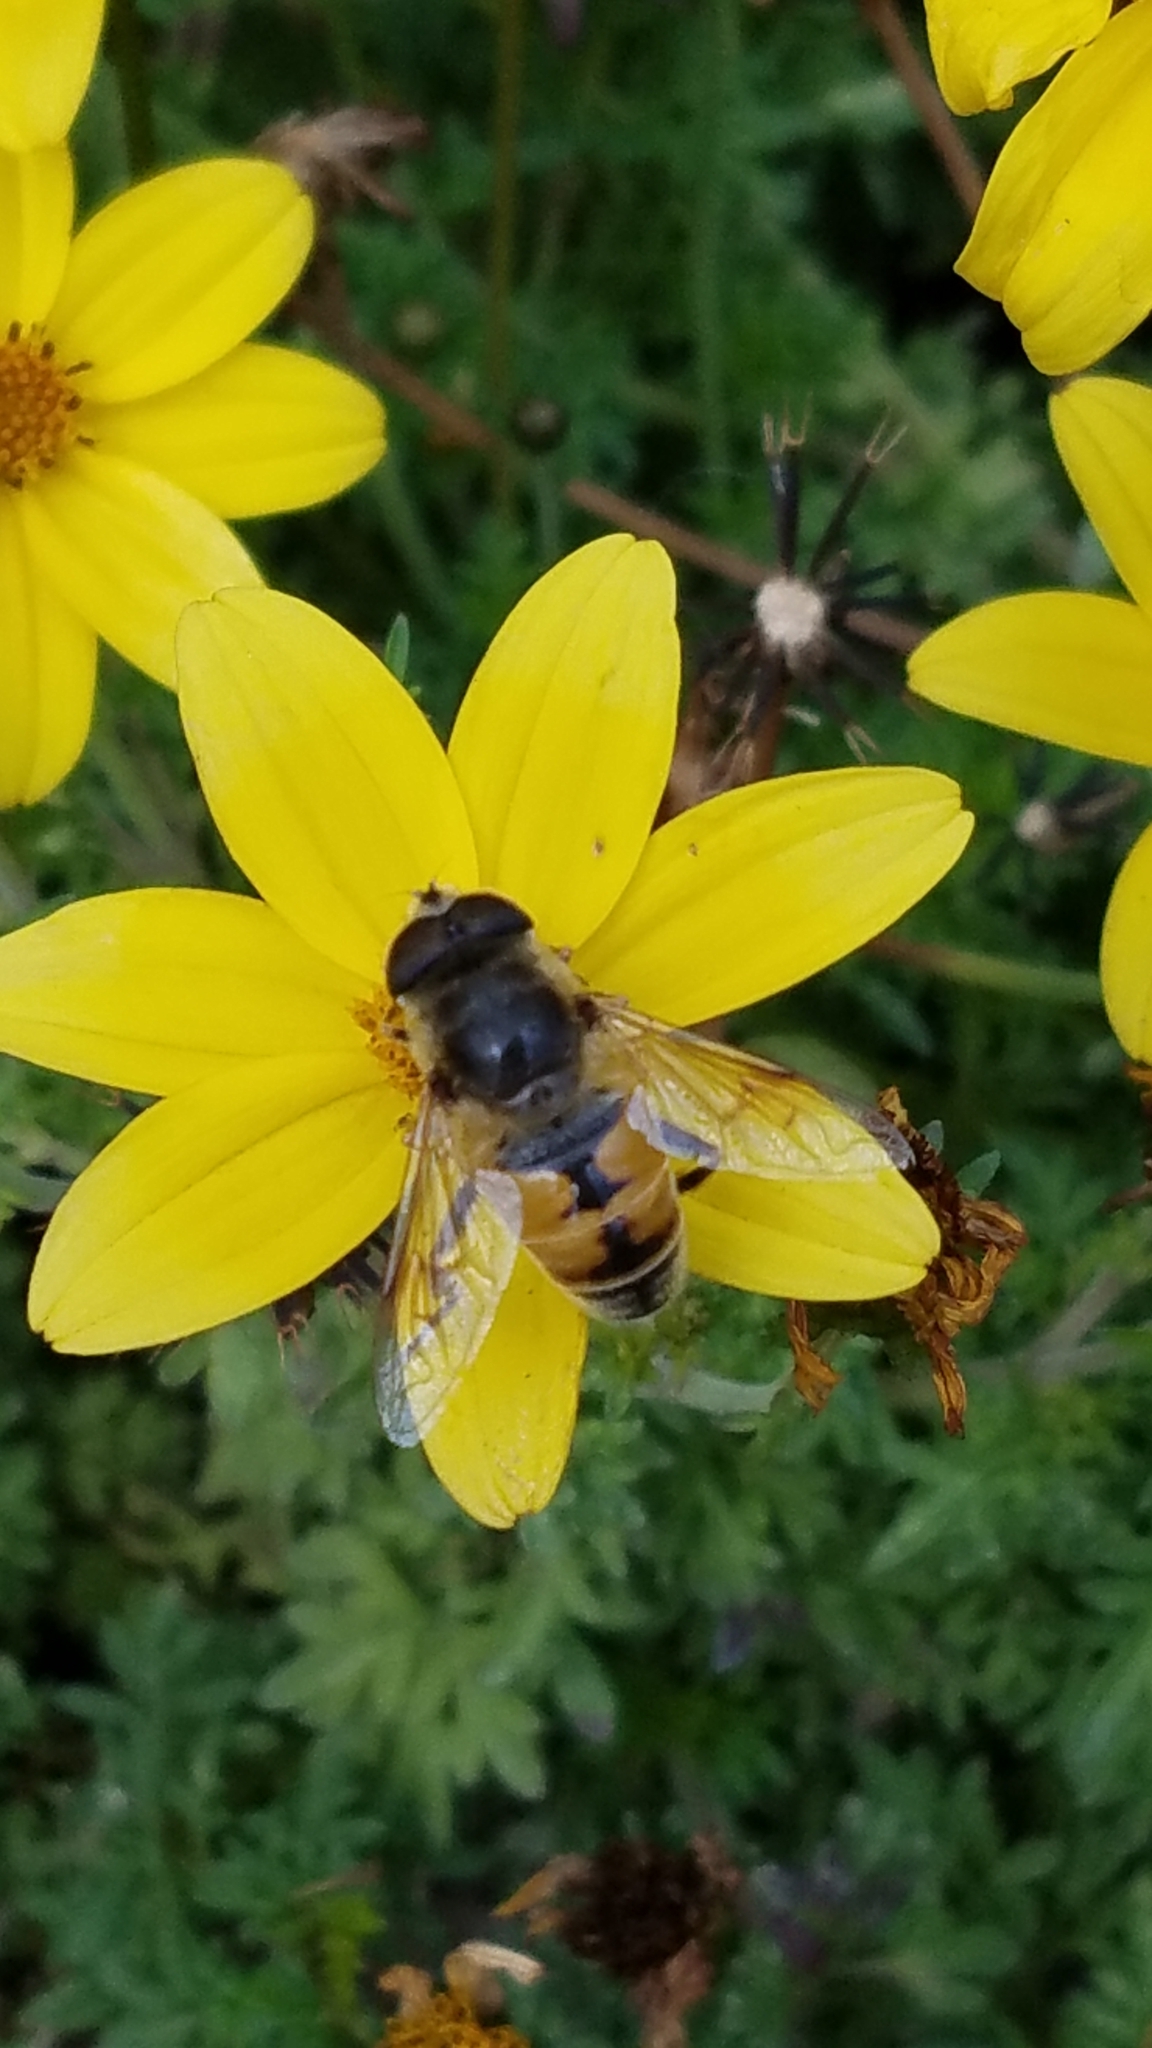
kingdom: Animalia
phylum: Arthropoda
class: Insecta
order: Diptera
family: Syrphidae
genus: Eristalis
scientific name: Eristalis tenax
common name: Drone fly
